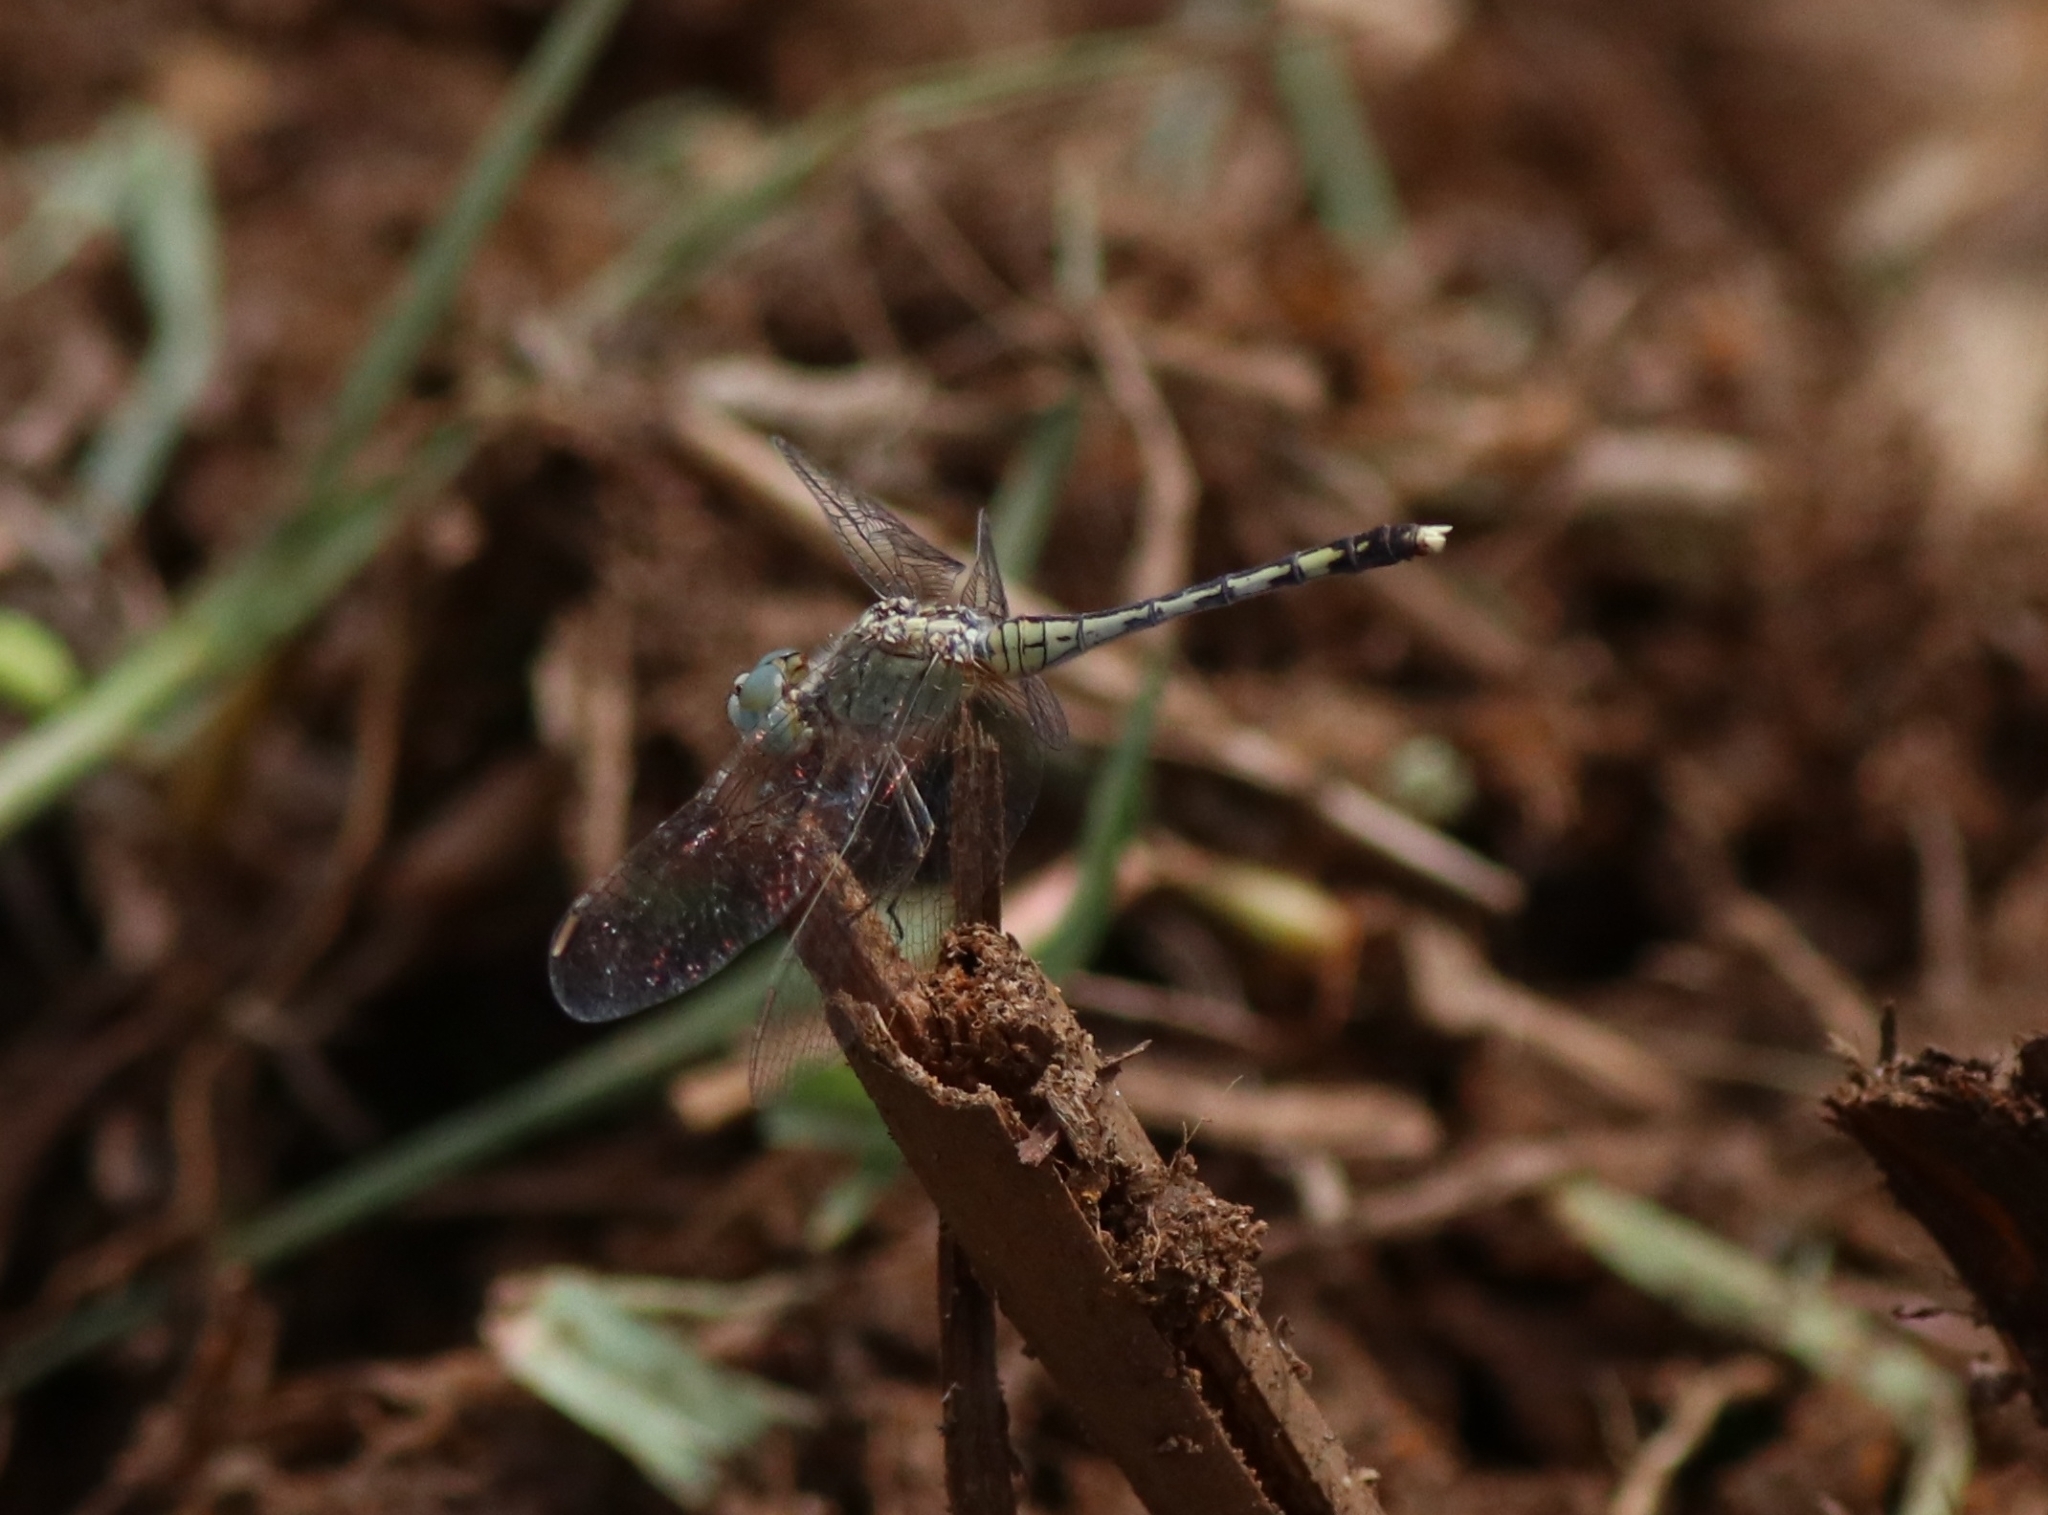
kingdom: Animalia
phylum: Arthropoda
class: Insecta
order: Odonata
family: Libellulidae
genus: Diplacodes
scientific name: Diplacodes trivialis
